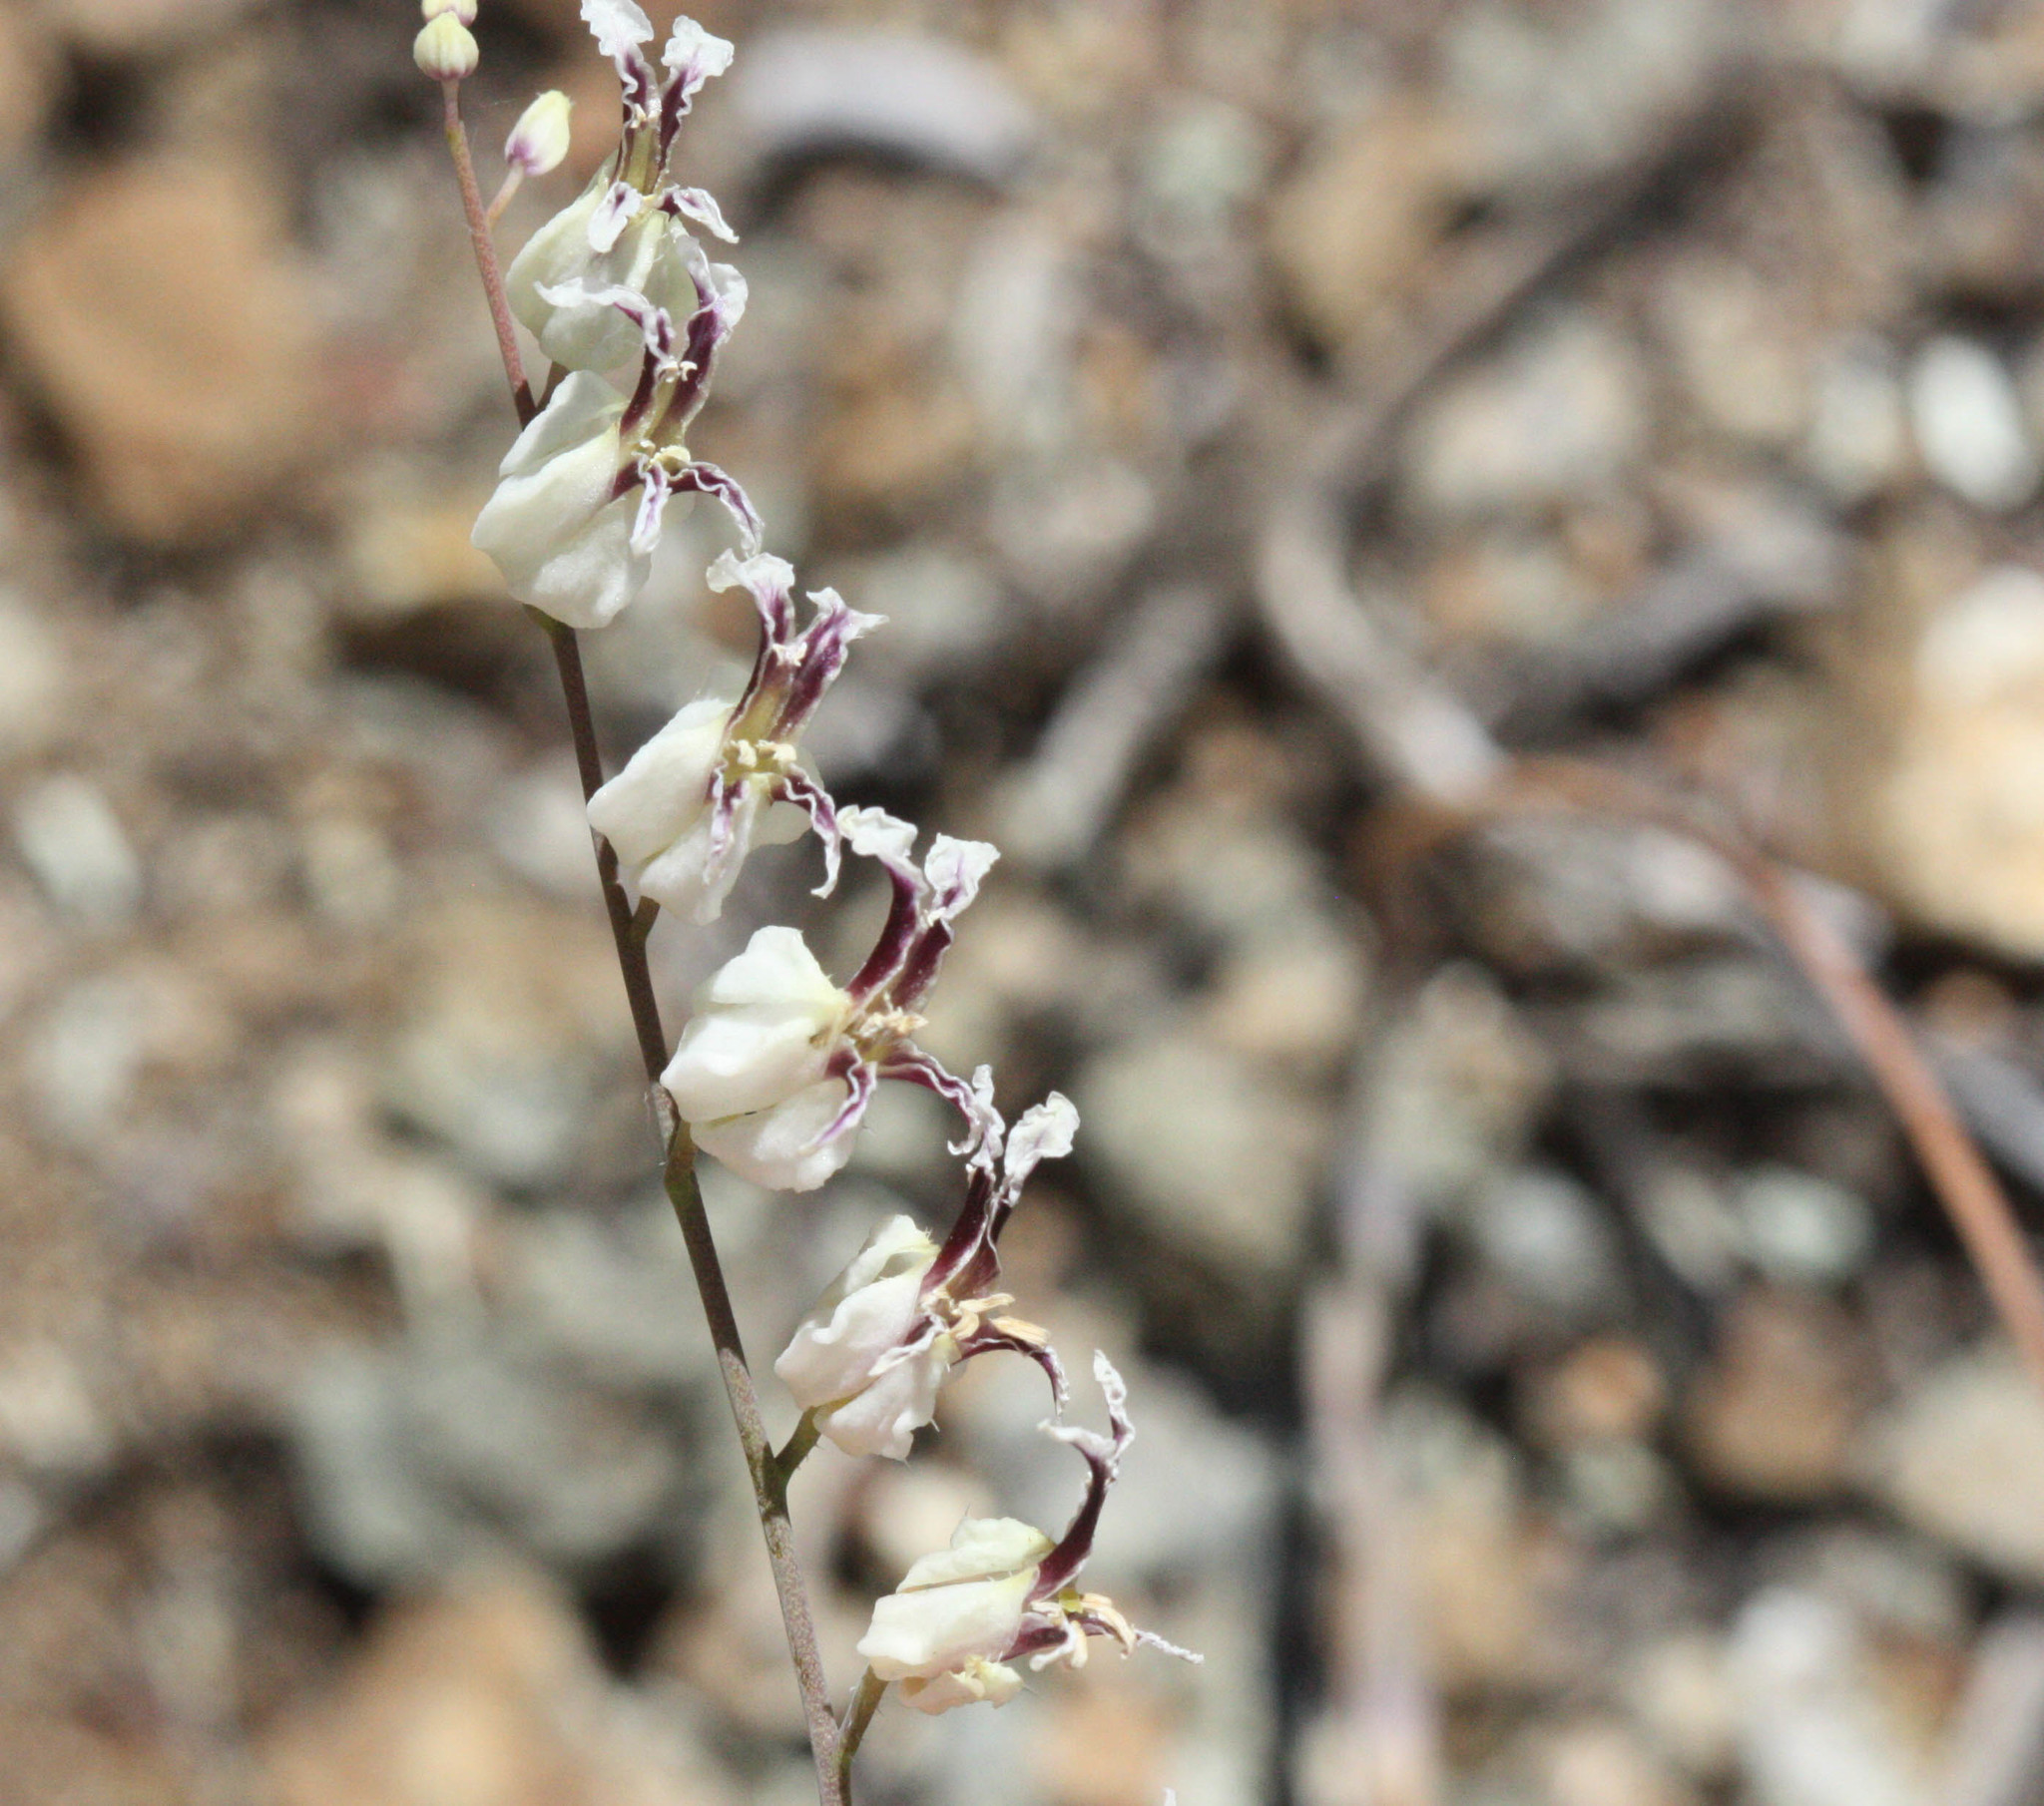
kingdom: Plantae
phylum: Tracheophyta
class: Magnoliopsida
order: Brassicales
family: Brassicaceae
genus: Streptanthus
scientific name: Streptanthus glandulosus
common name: Jewel-flower
